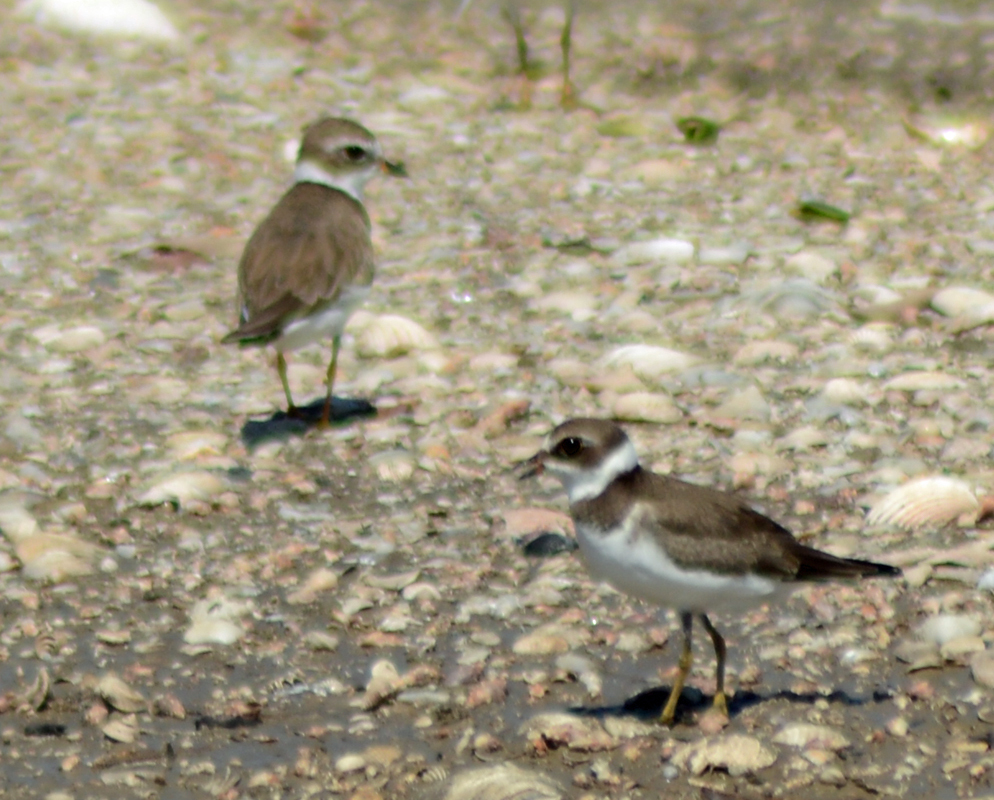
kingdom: Animalia
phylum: Chordata
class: Aves
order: Charadriiformes
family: Charadriidae
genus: Charadrius
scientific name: Charadrius semipalmatus
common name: Semipalmated plover
